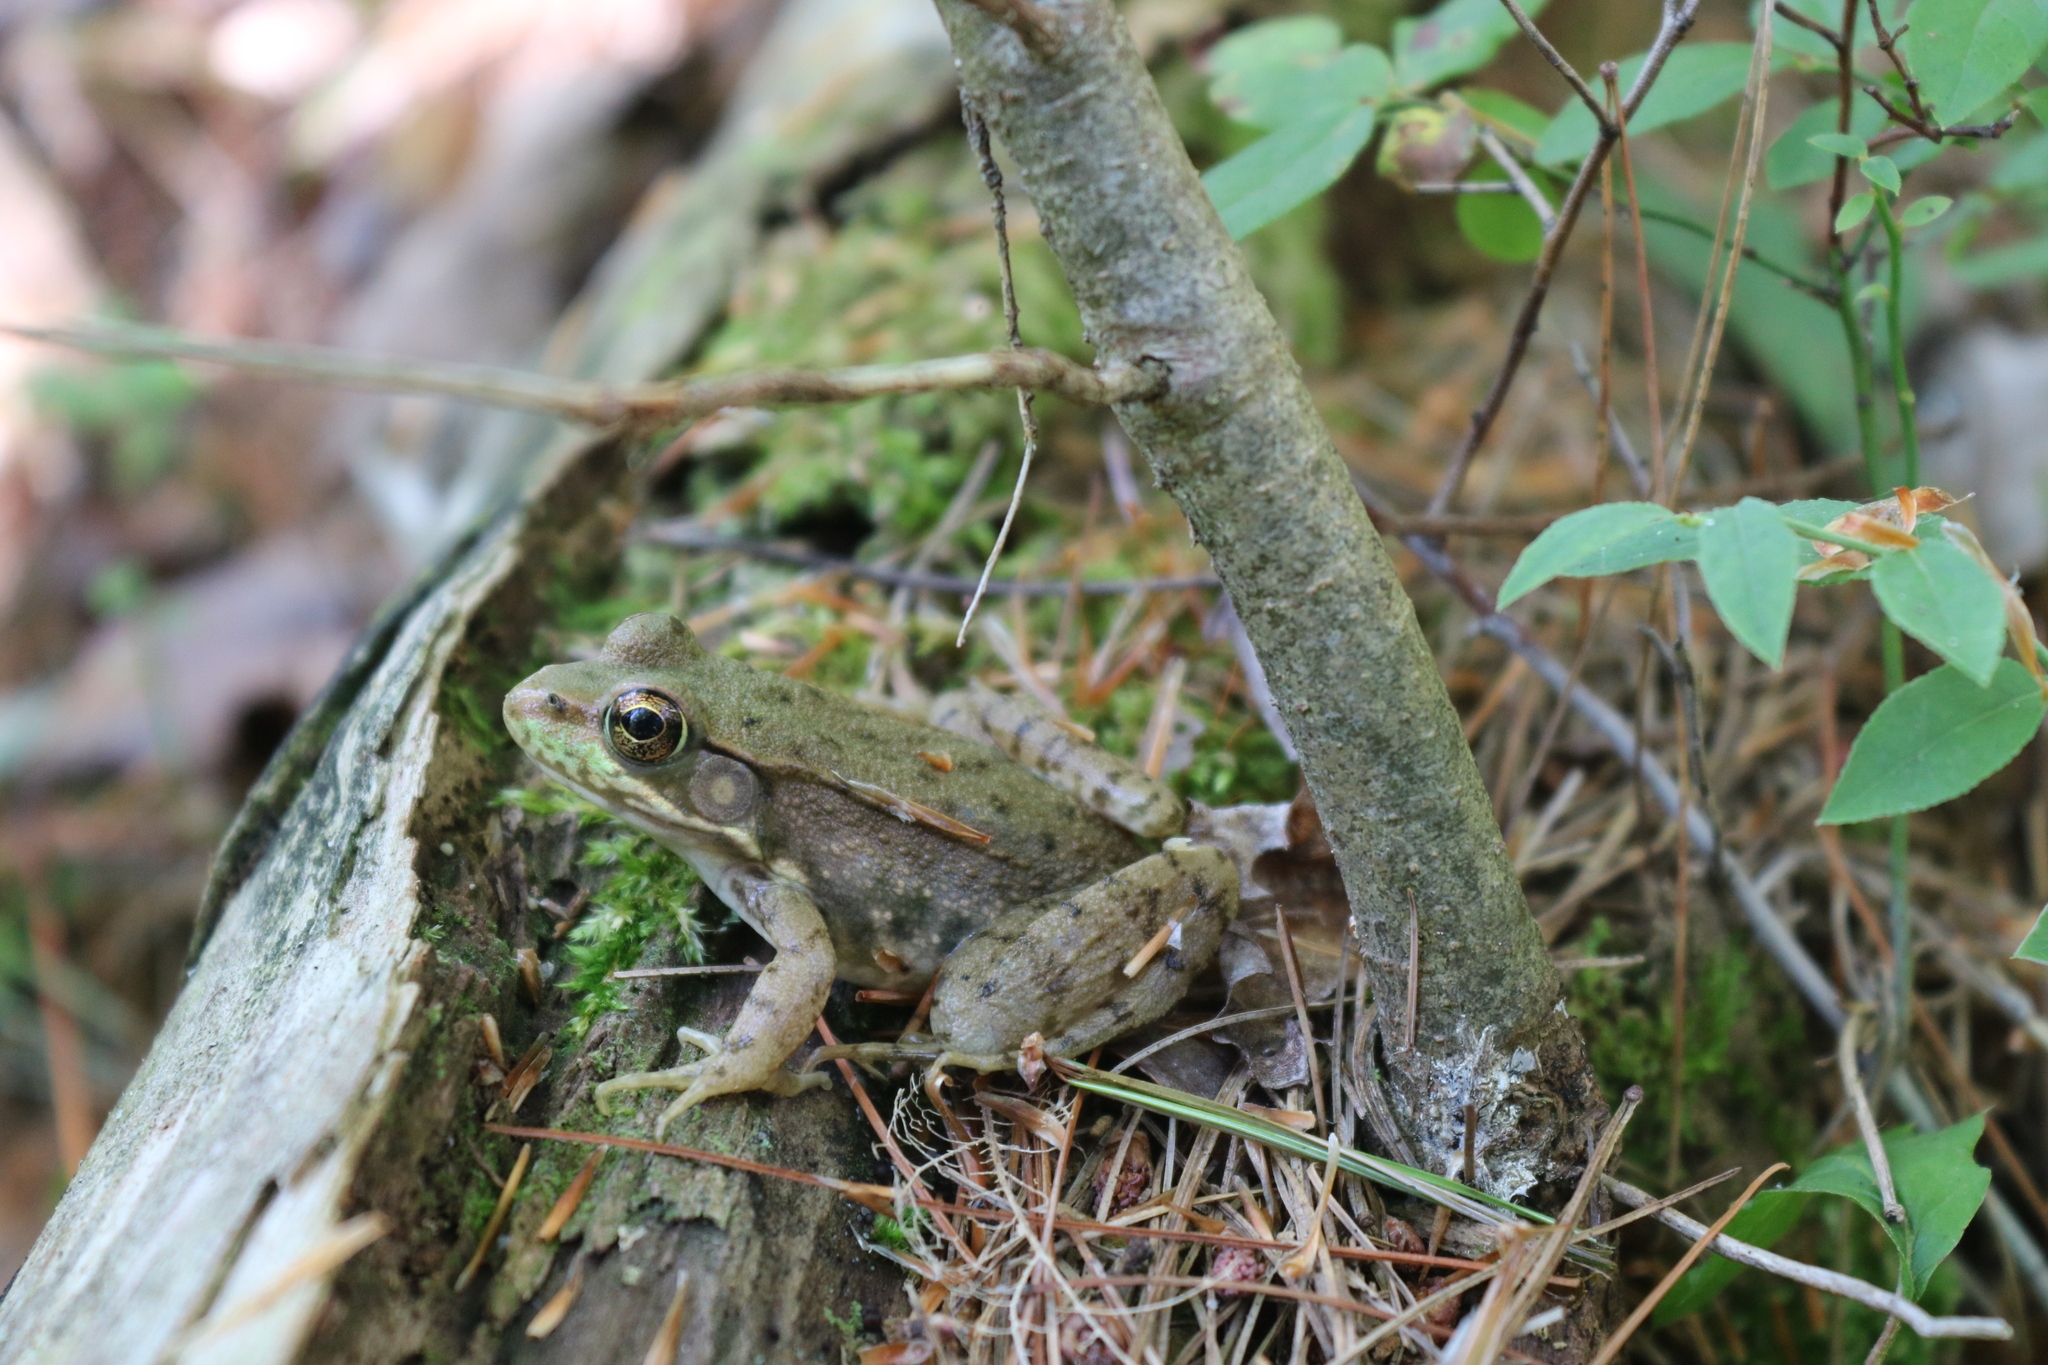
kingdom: Animalia
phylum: Chordata
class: Amphibia
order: Anura
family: Ranidae
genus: Lithobates
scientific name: Lithobates clamitans
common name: Green frog
